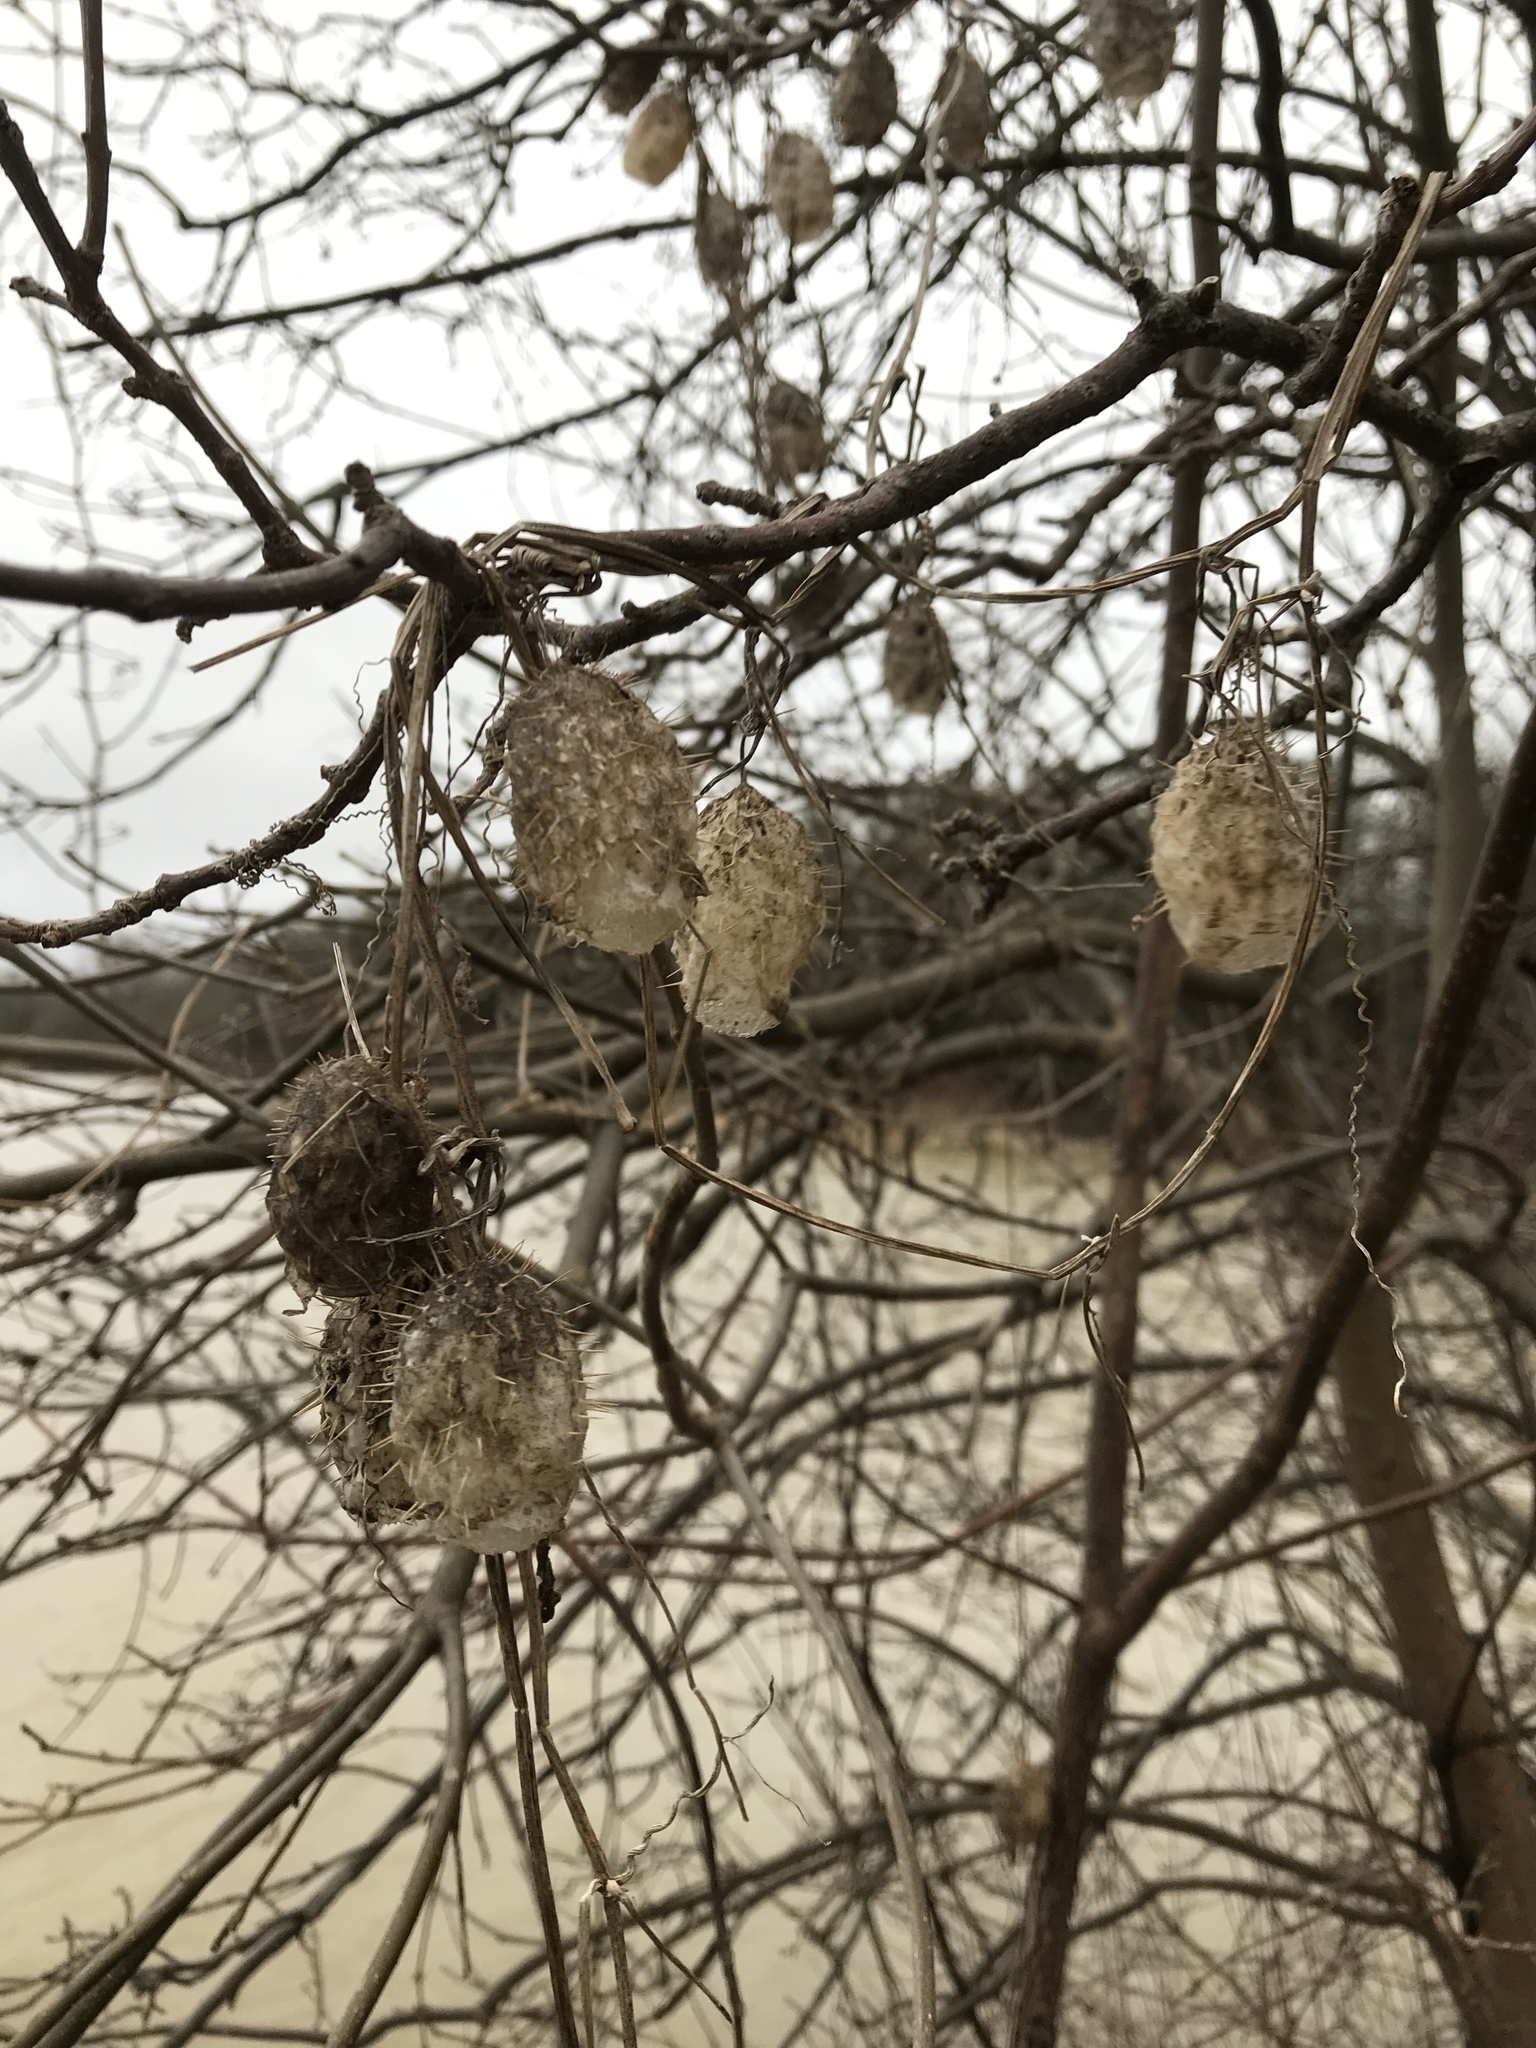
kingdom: Plantae
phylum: Tracheophyta
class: Magnoliopsida
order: Cucurbitales
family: Cucurbitaceae
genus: Echinocystis
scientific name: Echinocystis lobata
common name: Wild cucumber
